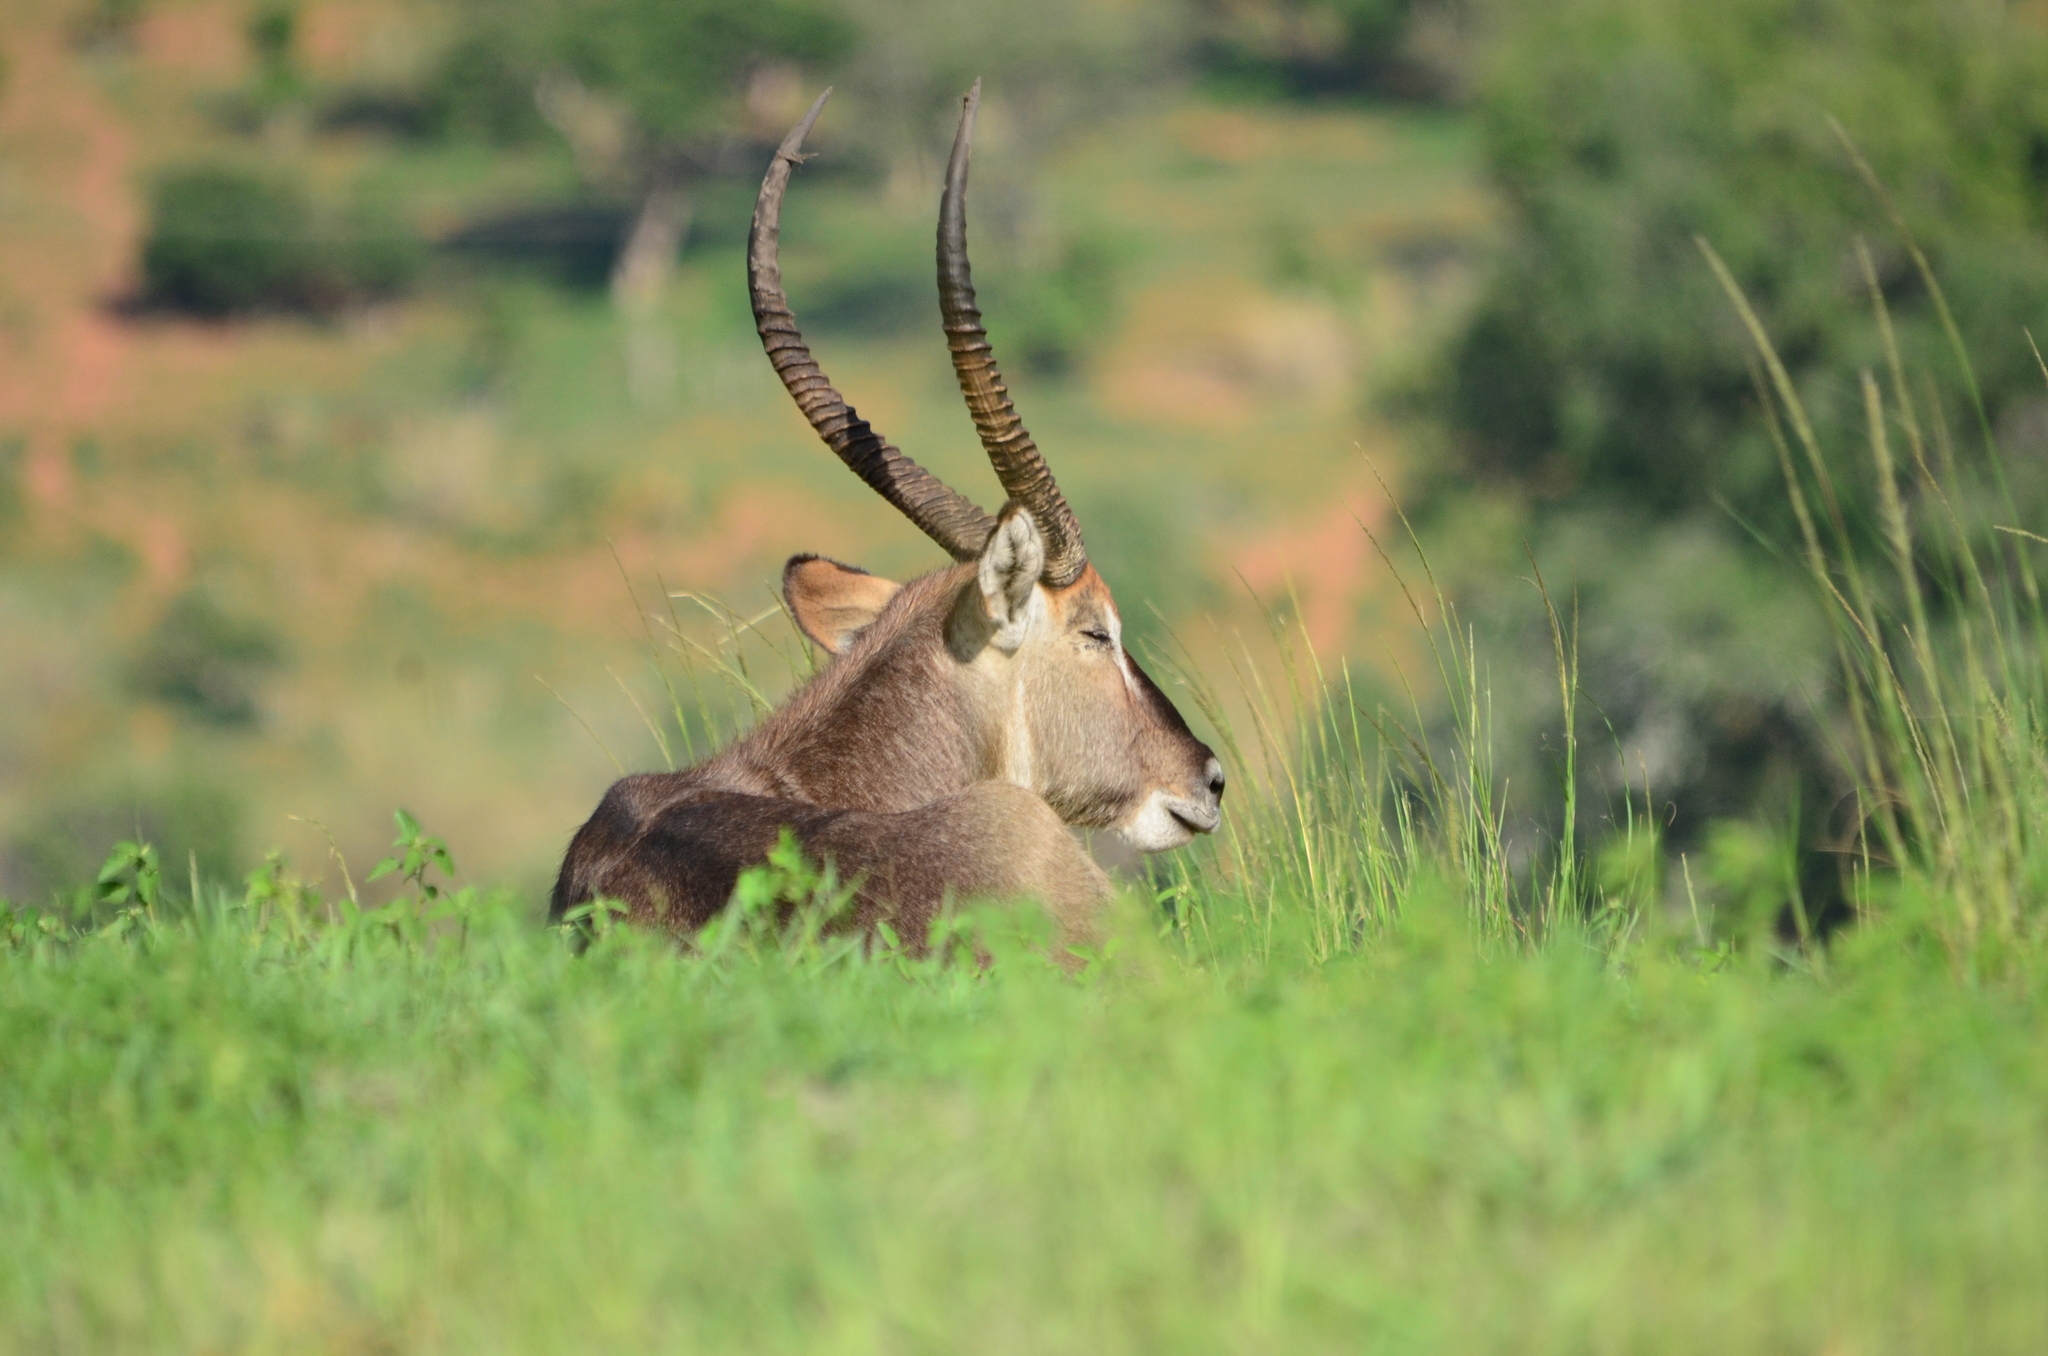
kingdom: Animalia
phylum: Chordata
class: Mammalia
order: Artiodactyla
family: Bovidae
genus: Kobus
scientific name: Kobus ellipsiprymnus
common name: Waterbuck
